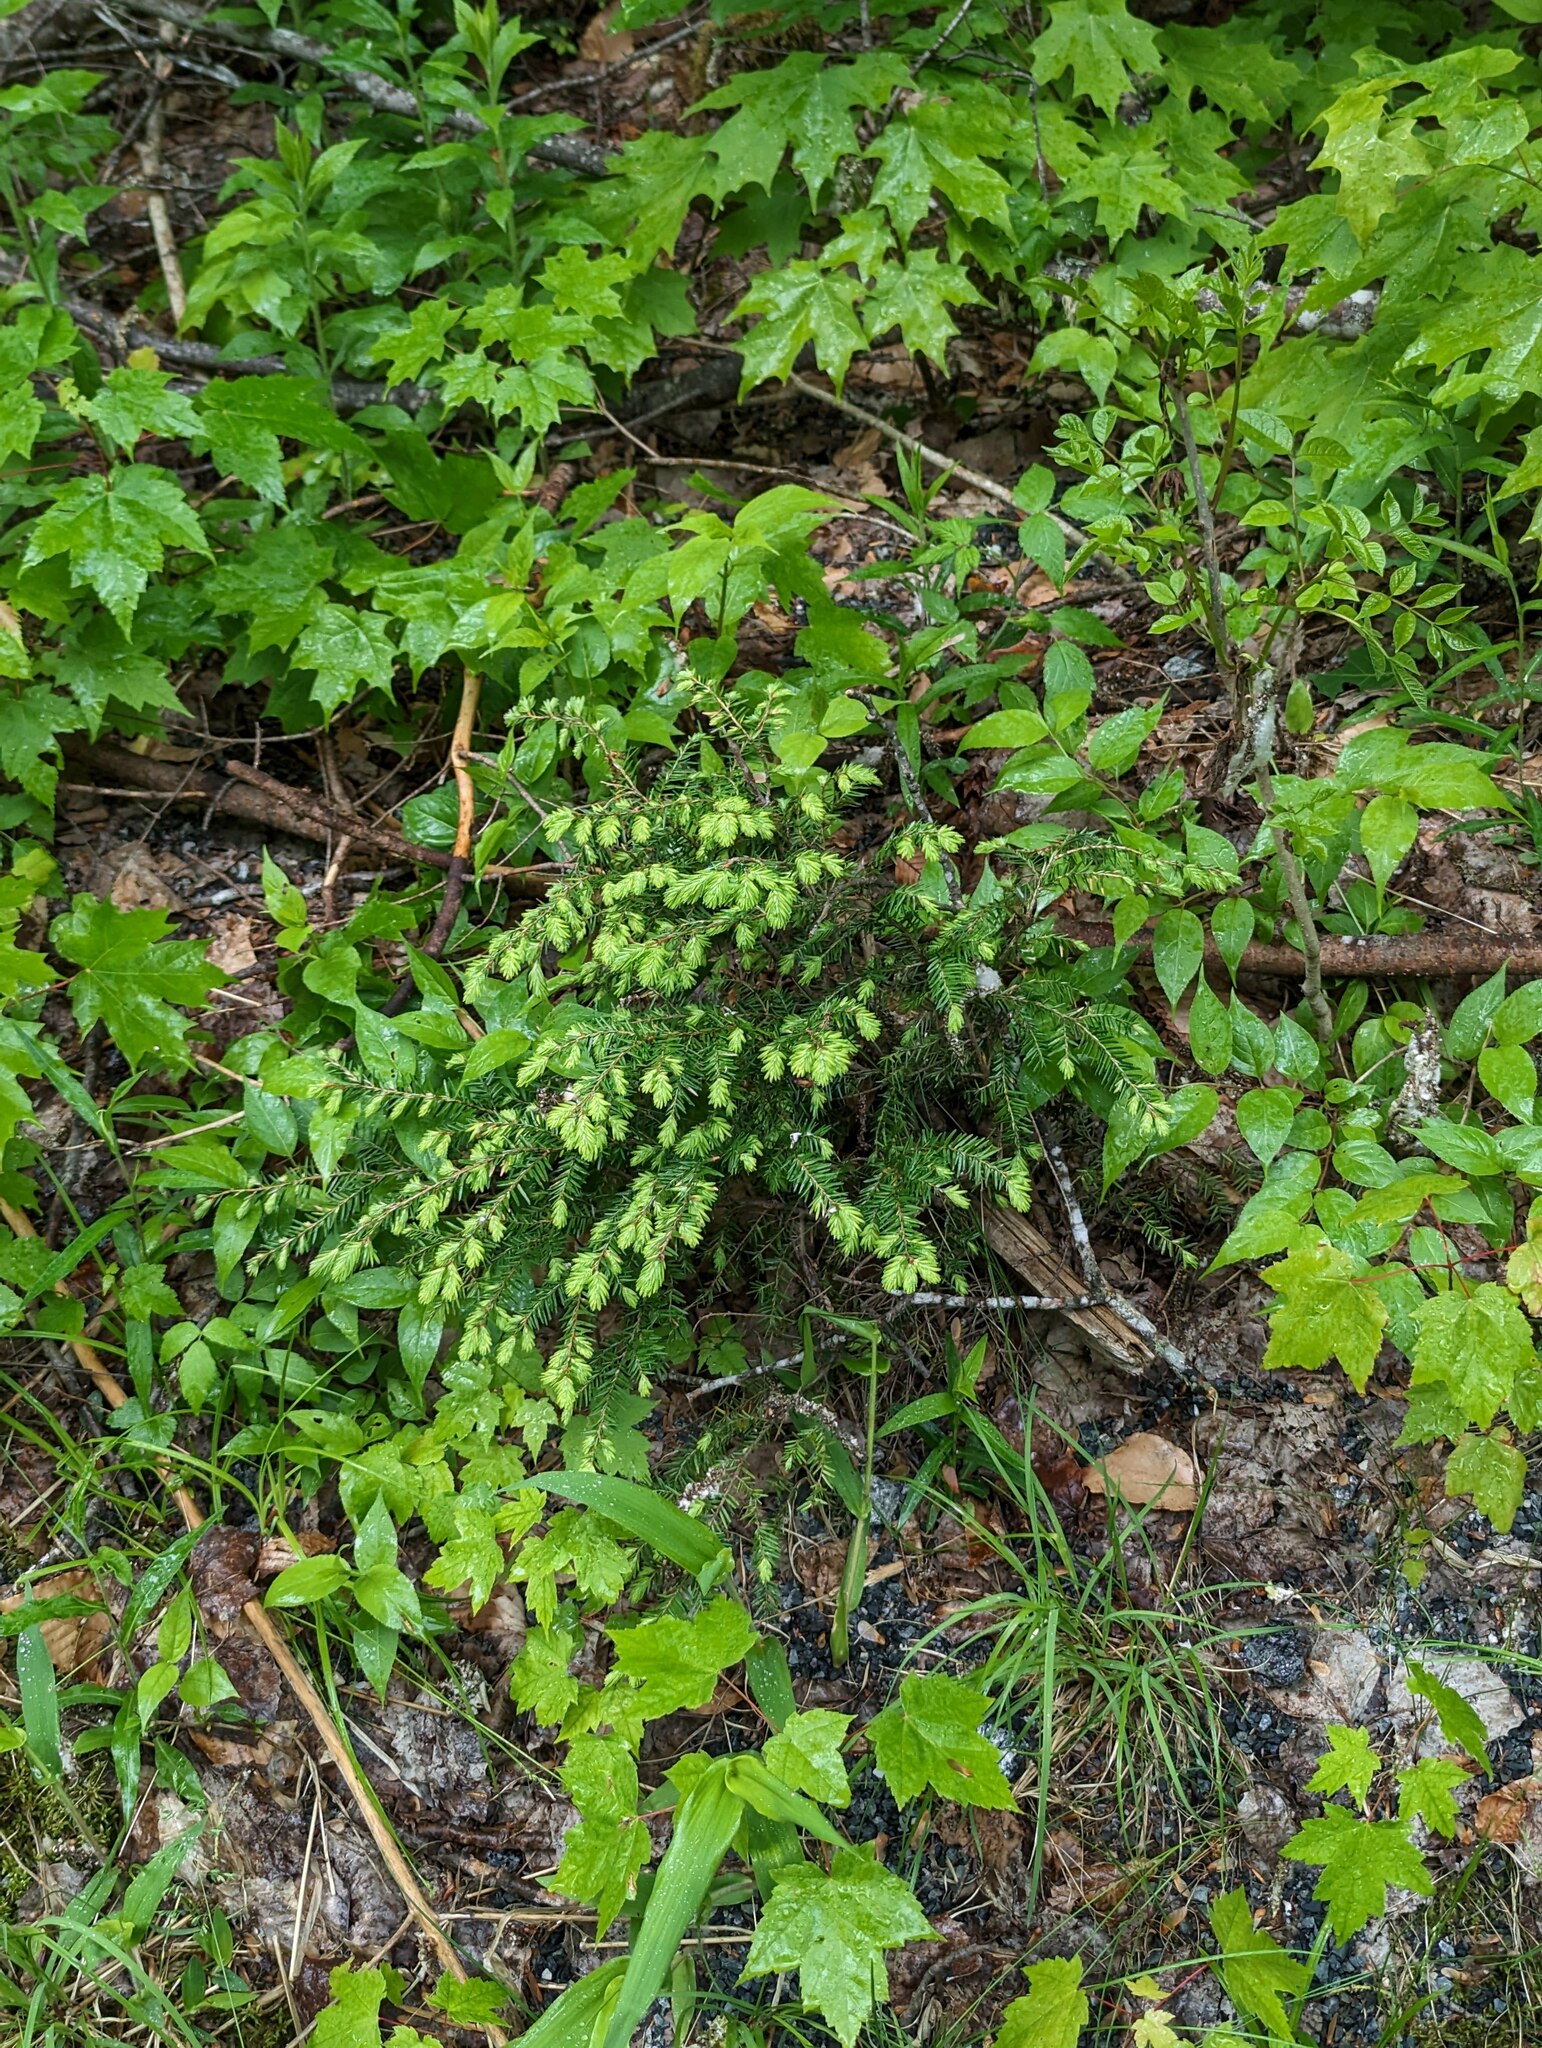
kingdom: Plantae
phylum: Tracheophyta
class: Pinopsida
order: Pinales
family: Pinaceae
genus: Tsuga
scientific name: Tsuga canadensis
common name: Eastern hemlock
